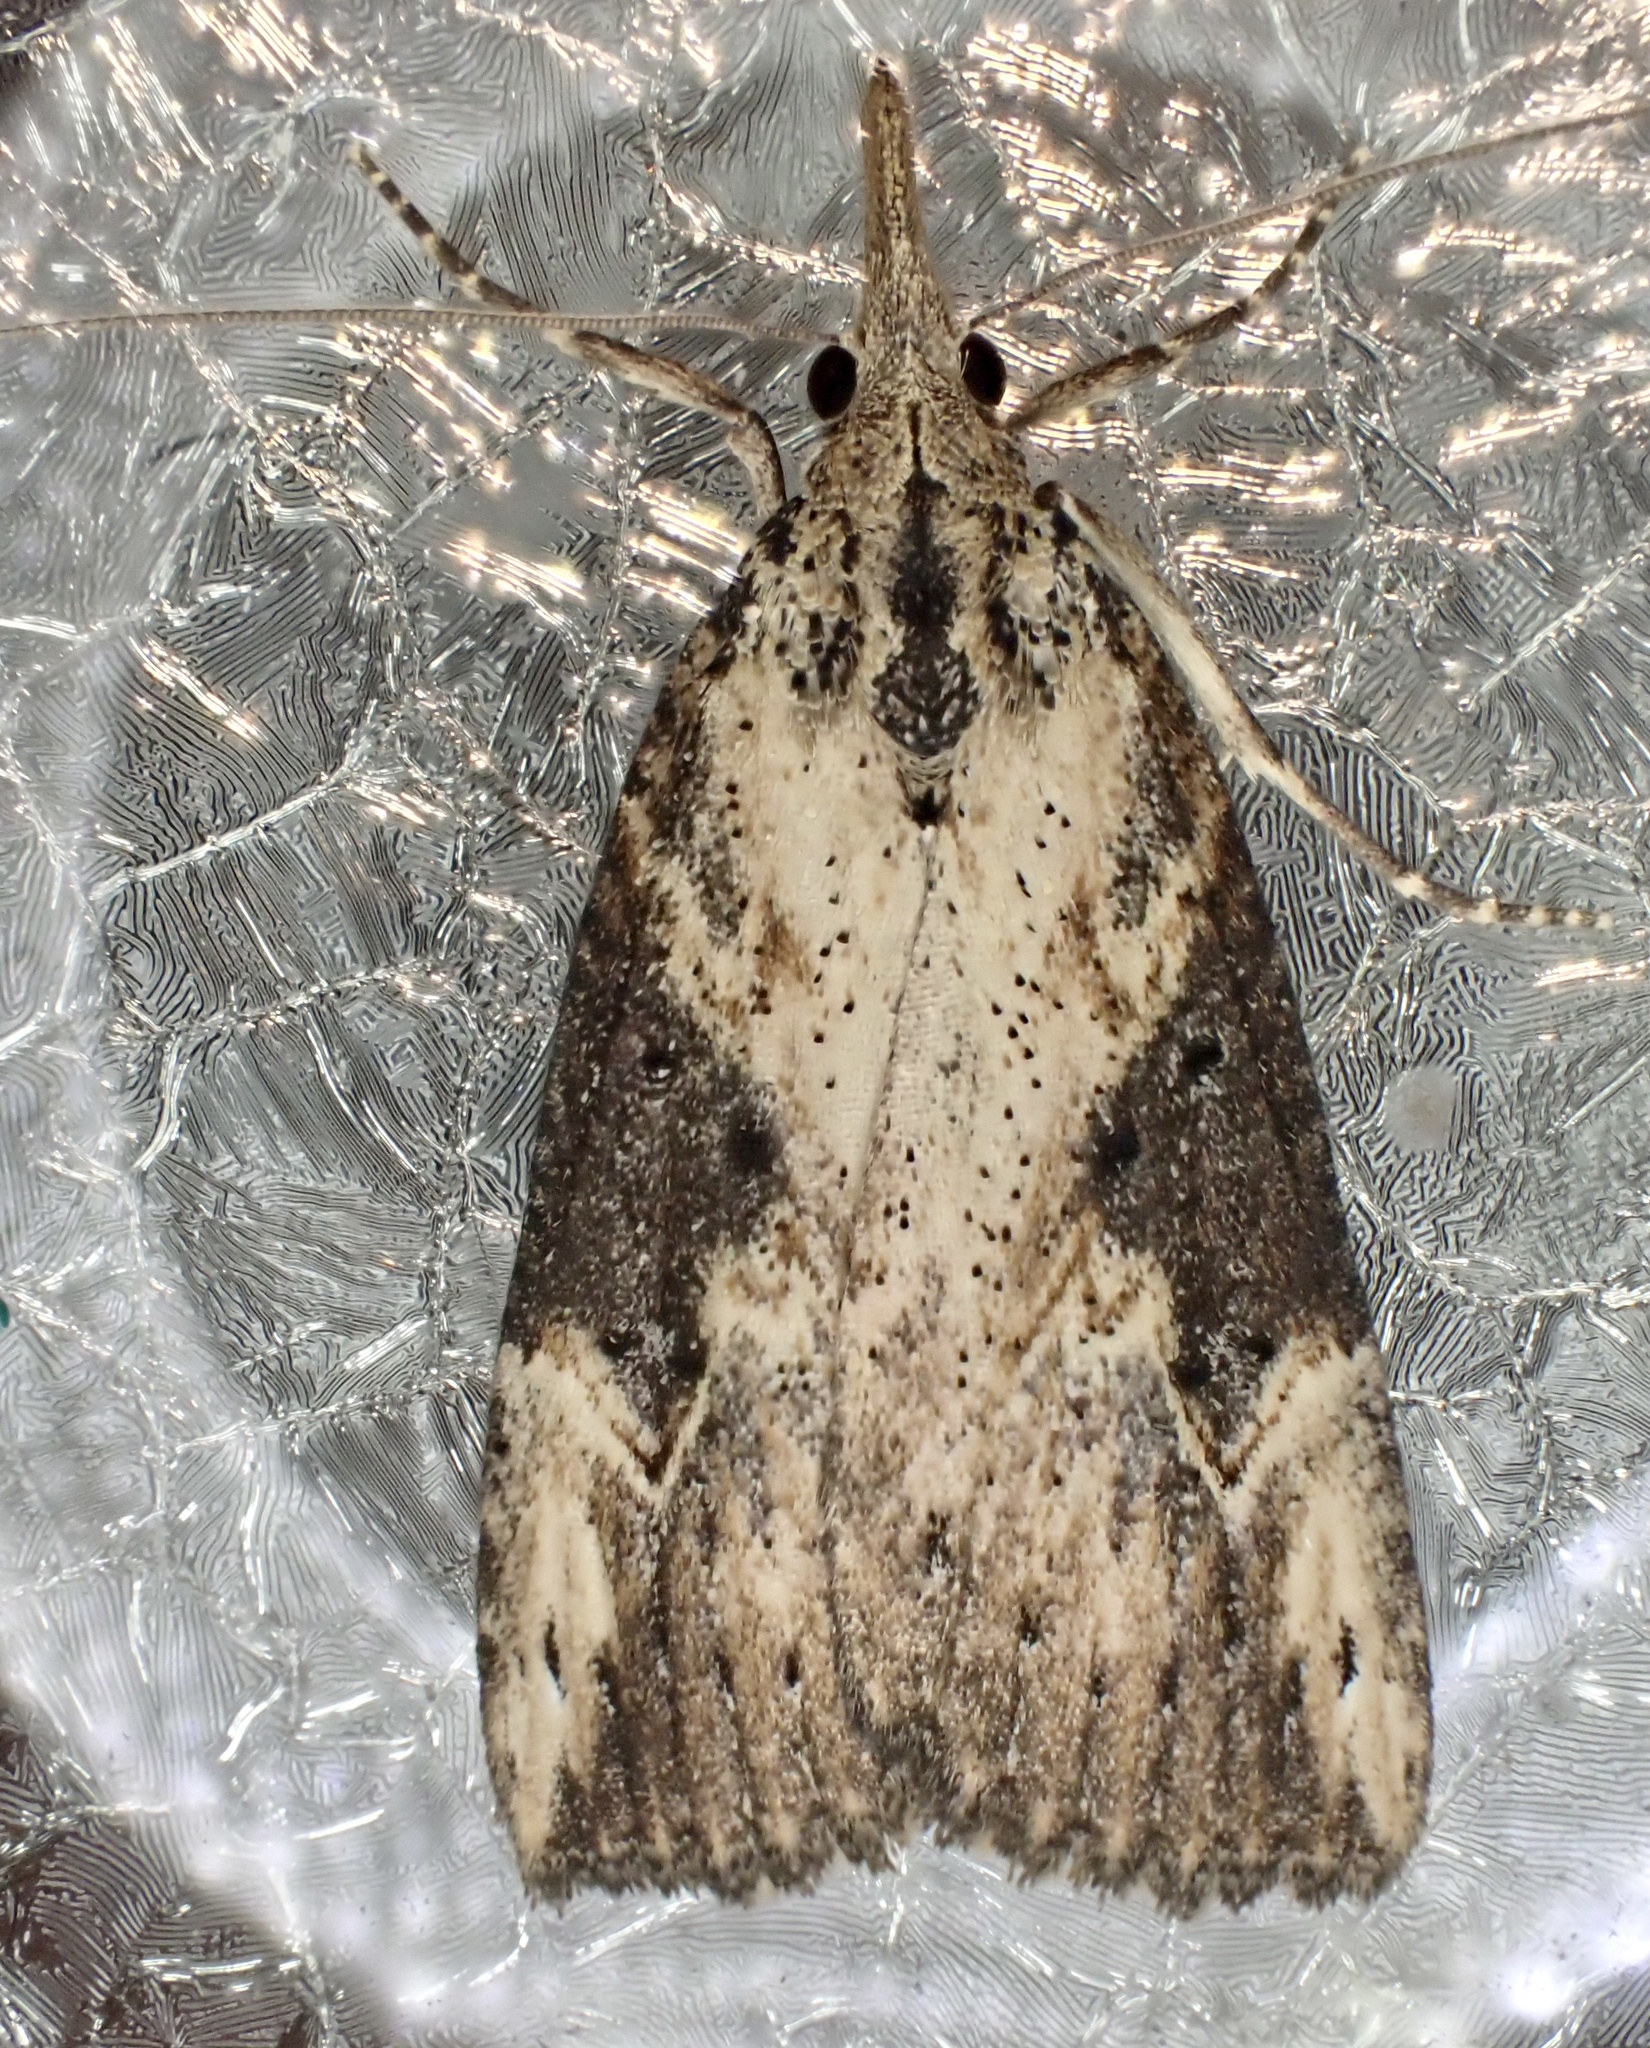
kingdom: Animalia
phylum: Arthropoda
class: Insecta
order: Lepidoptera
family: Erebidae
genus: Hypena
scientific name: Hypena humuli
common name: Hop vine snout
